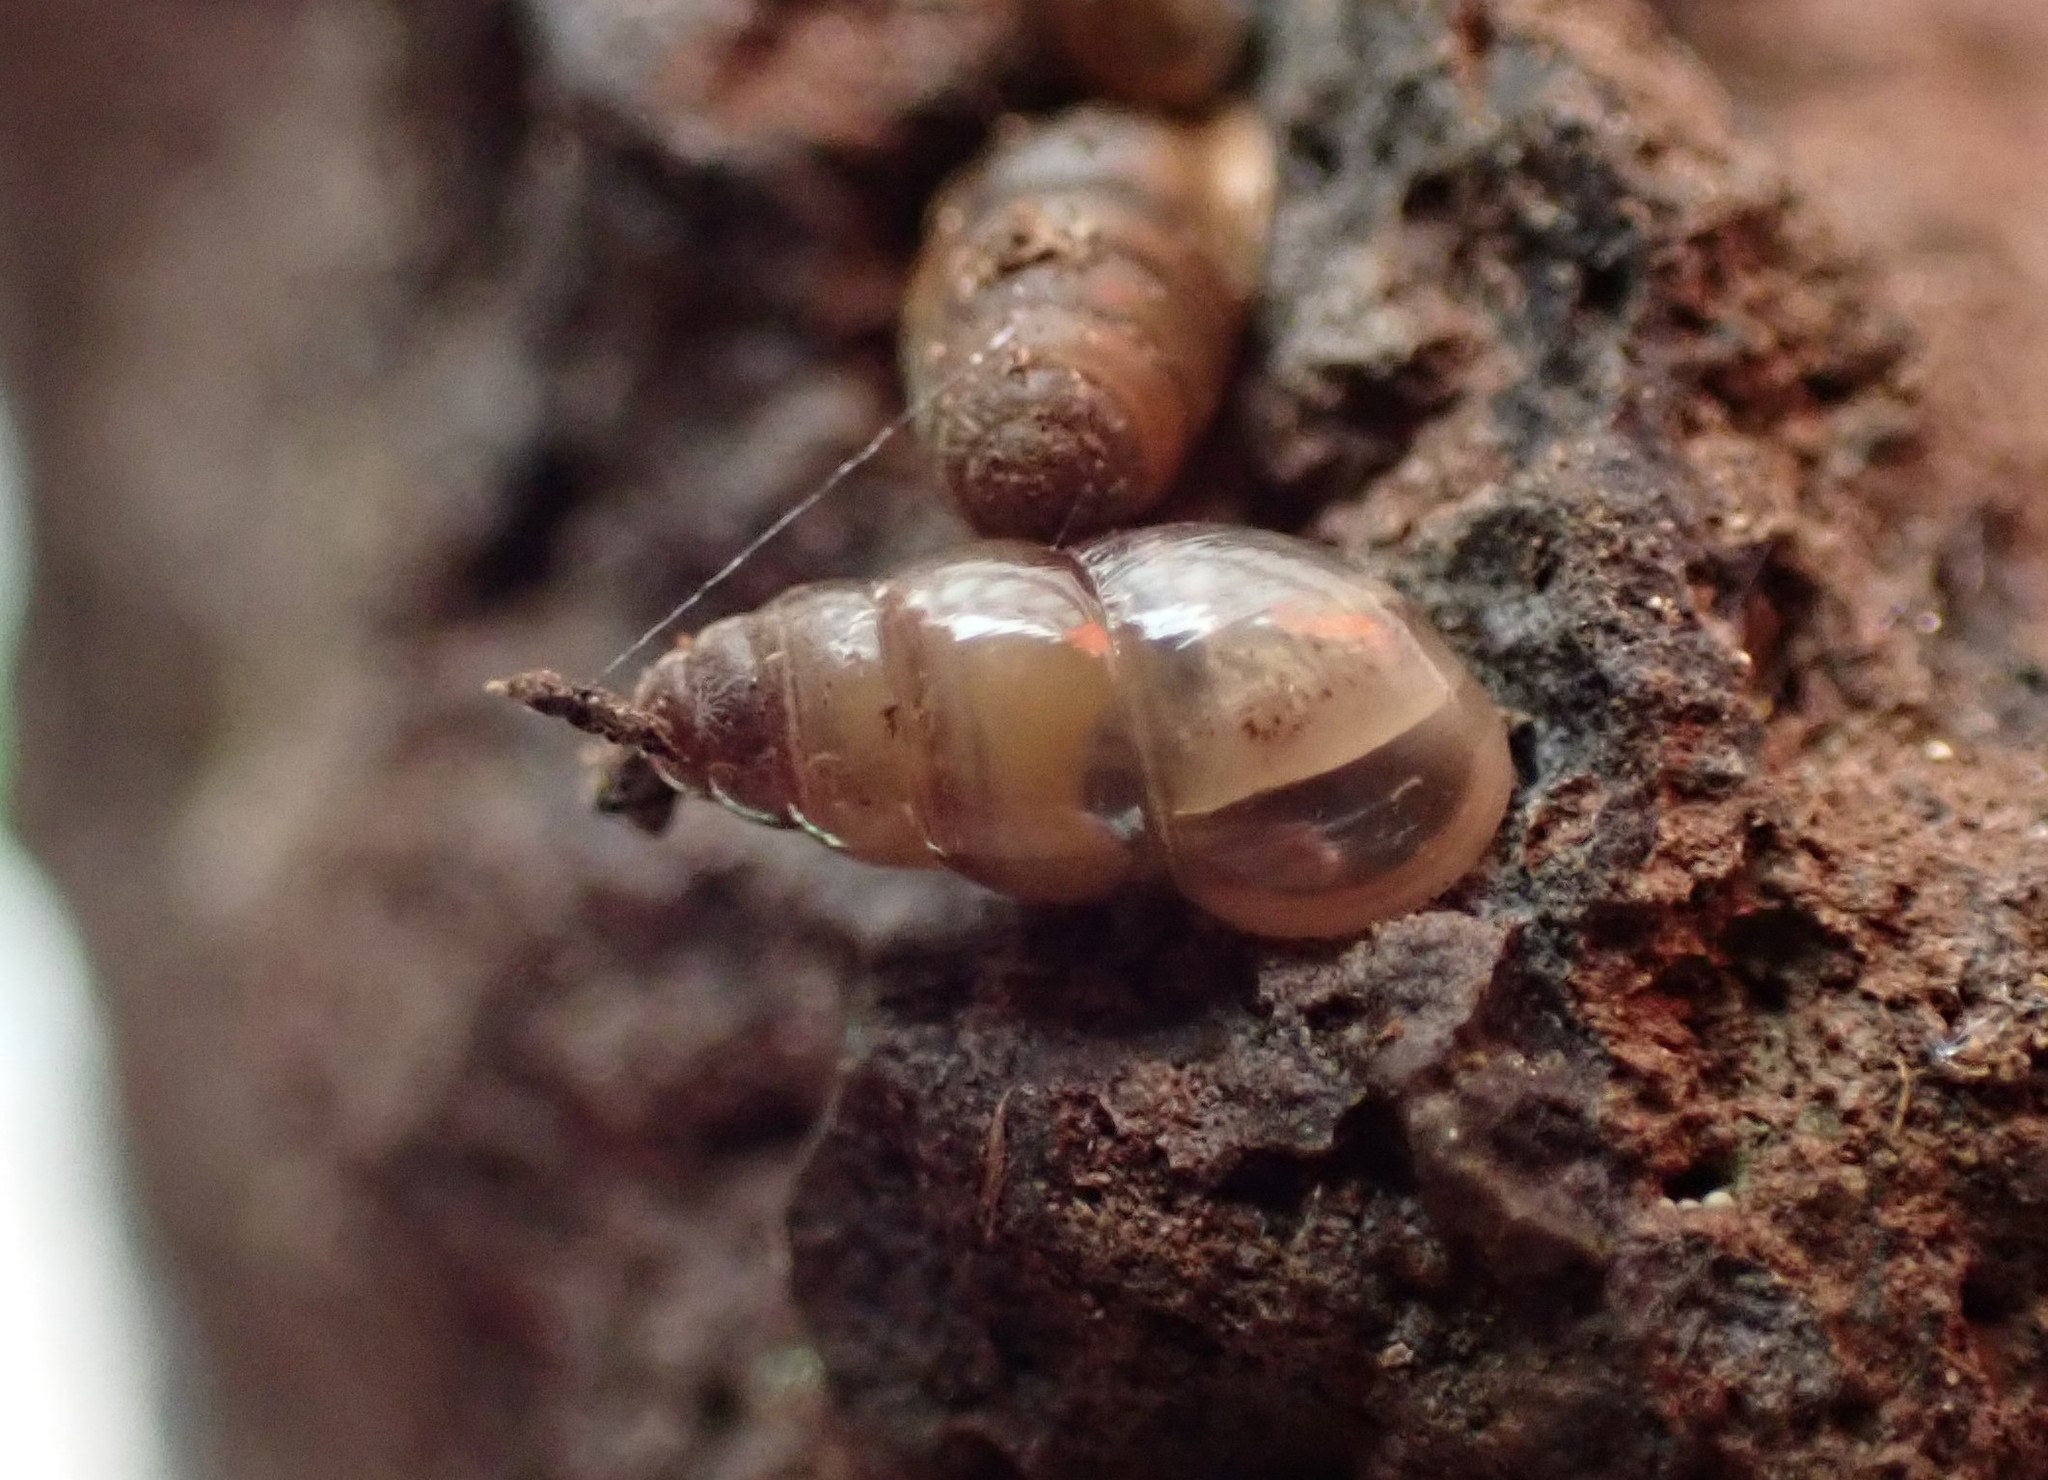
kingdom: Animalia
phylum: Mollusca
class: Gastropoda
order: Stylommatophora
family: Cochlicopidae
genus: Cochlicopa
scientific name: Cochlicopa lubrica
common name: Glossy pillar snail
